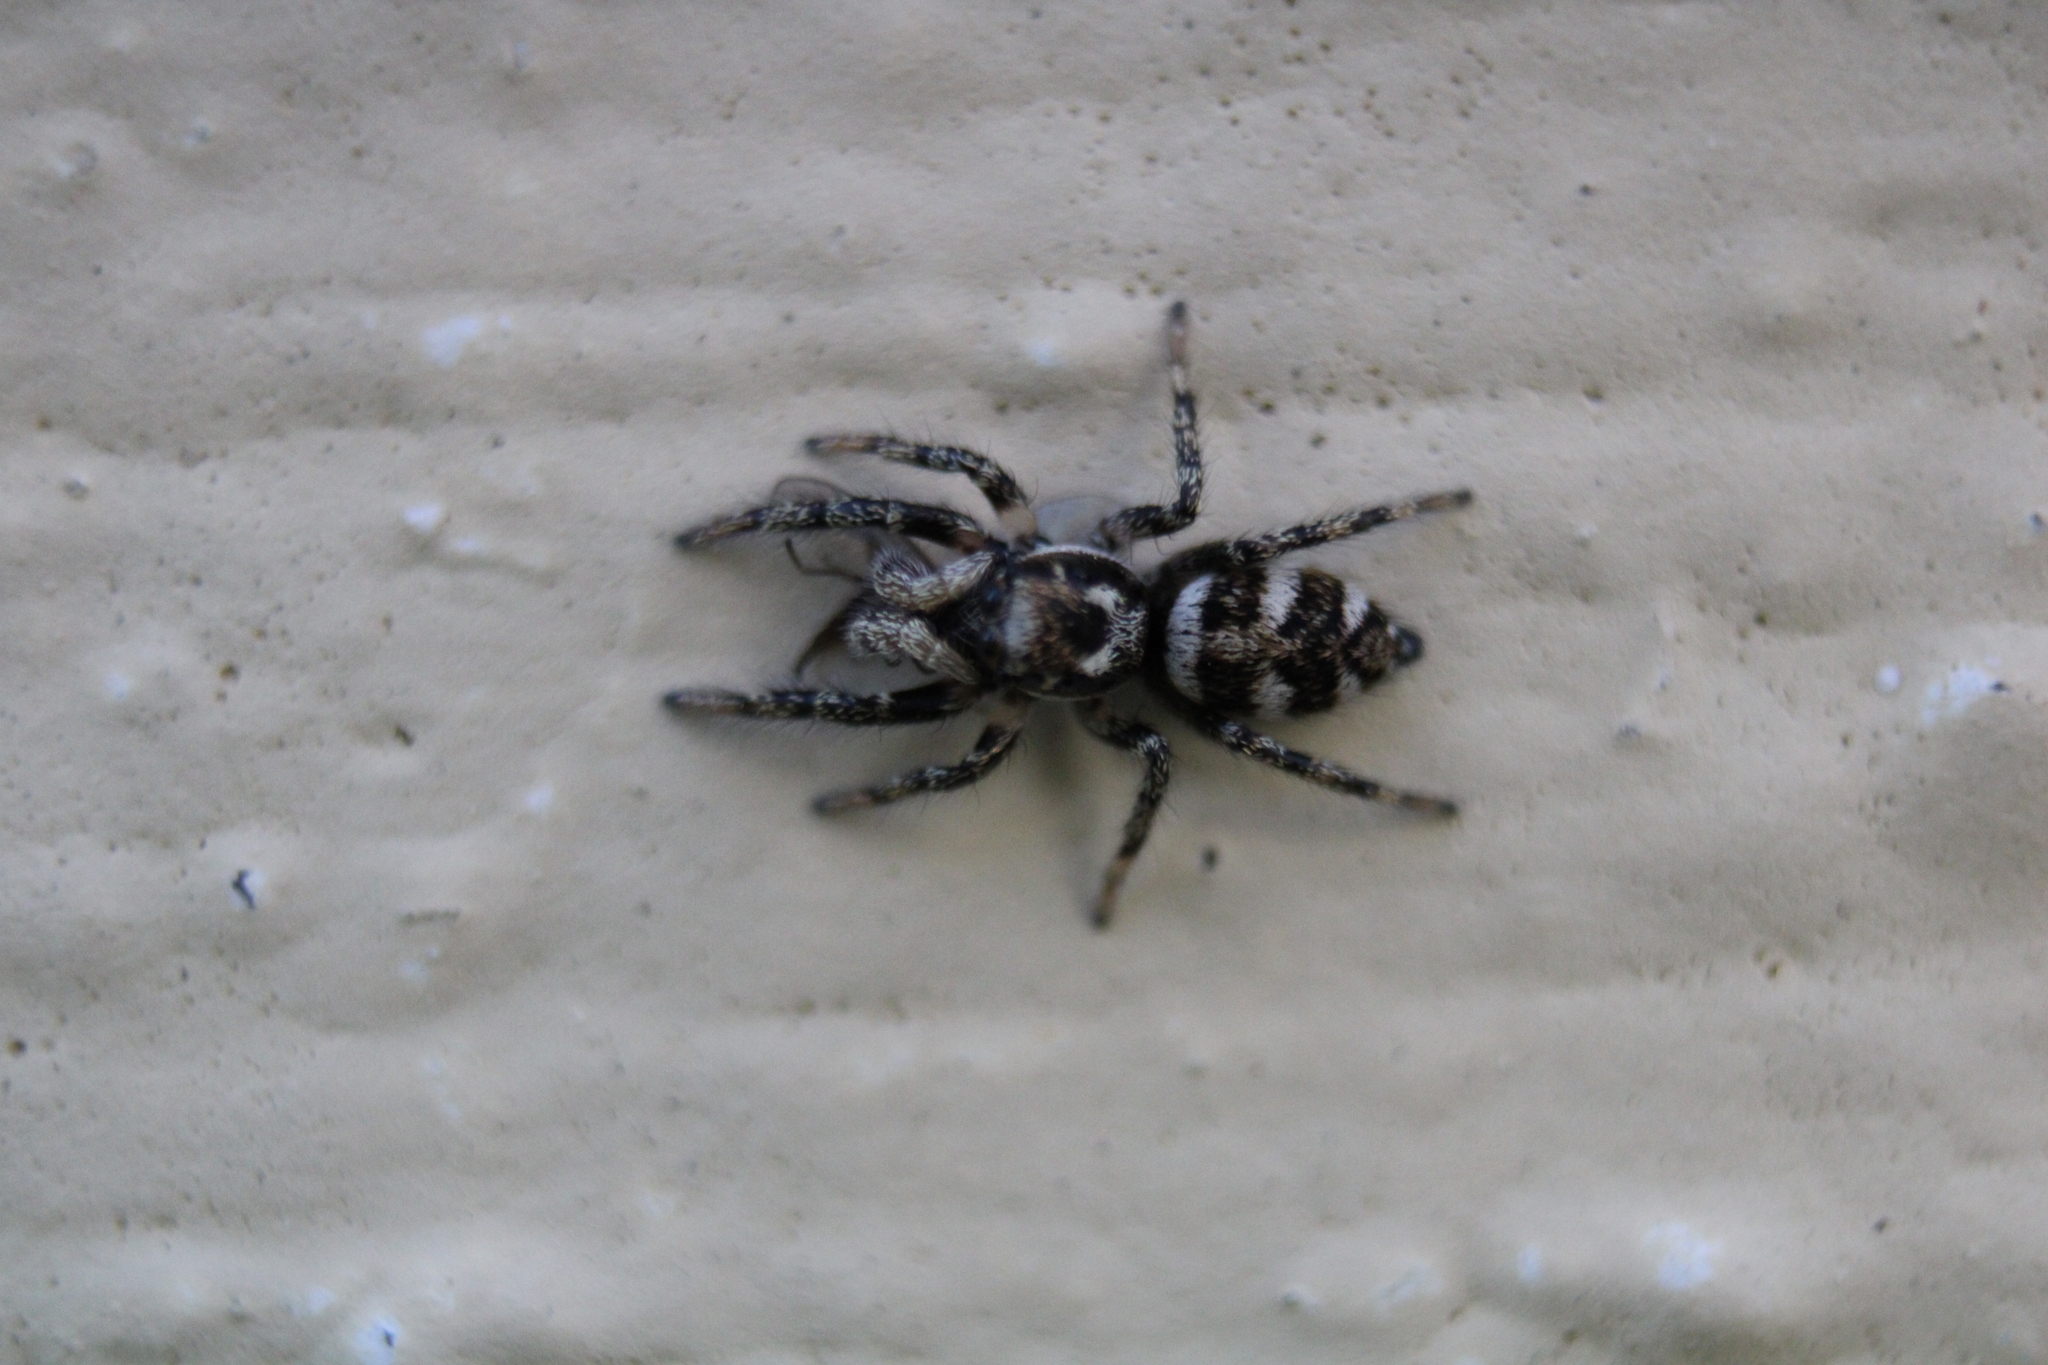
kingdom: Animalia
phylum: Arthropoda
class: Arachnida
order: Araneae
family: Salticidae
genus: Salticus
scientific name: Salticus scenicus
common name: Zebra jumper
